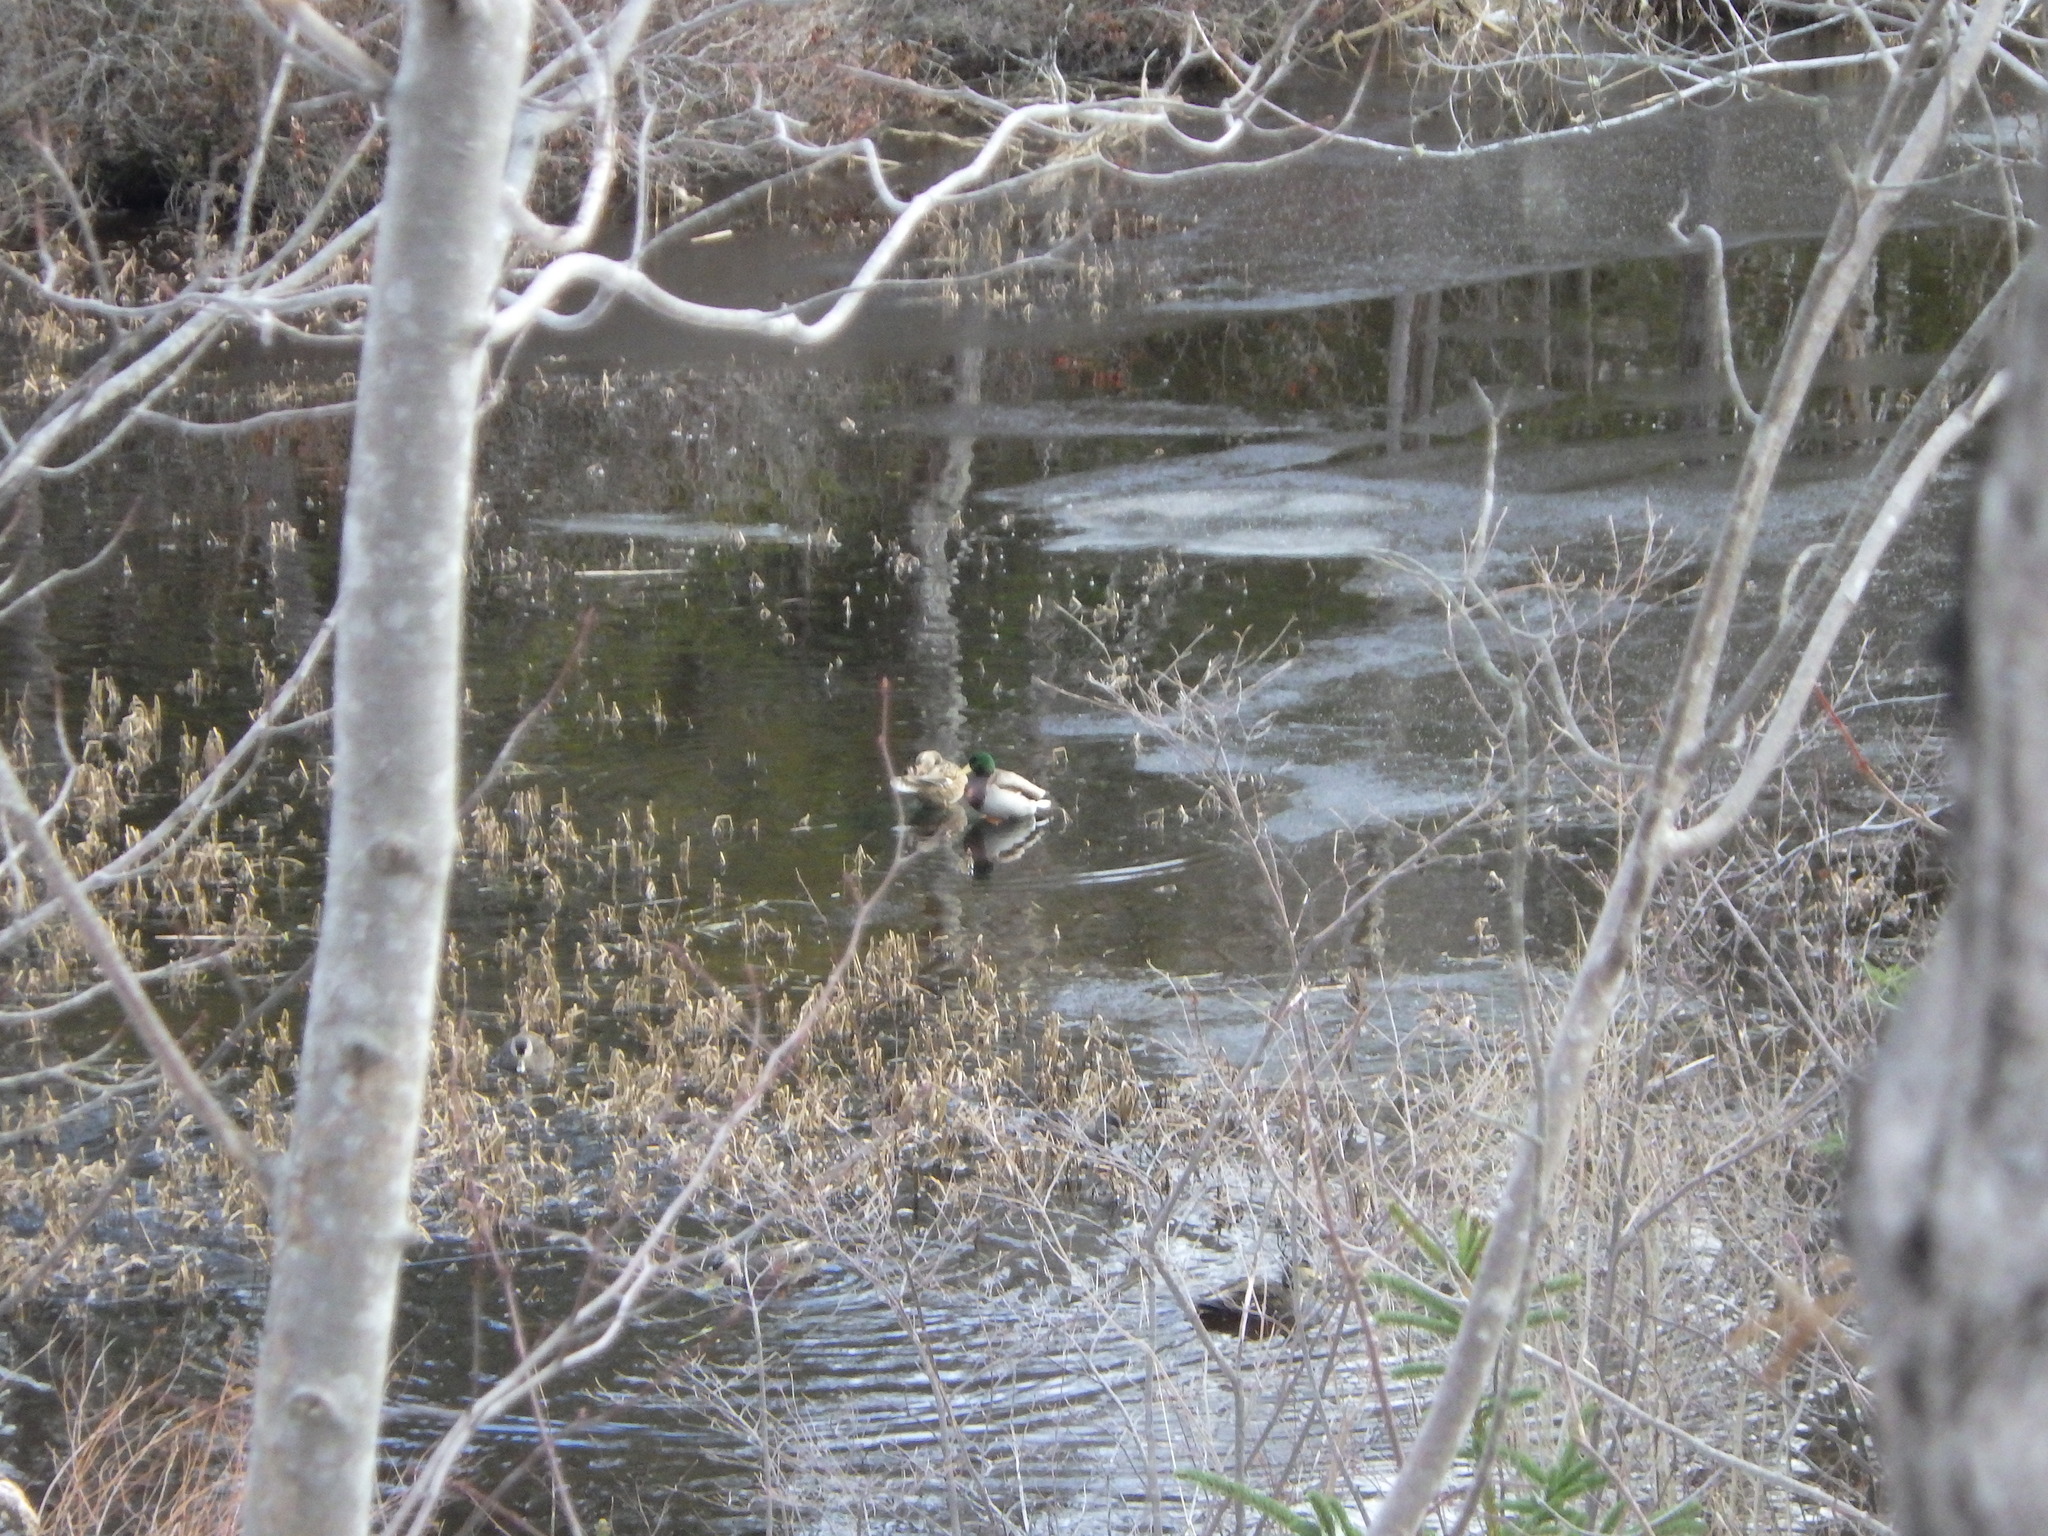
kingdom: Animalia
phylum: Chordata
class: Aves
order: Anseriformes
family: Anatidae
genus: Anas
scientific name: Anas platyrhynchos
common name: Mallard
